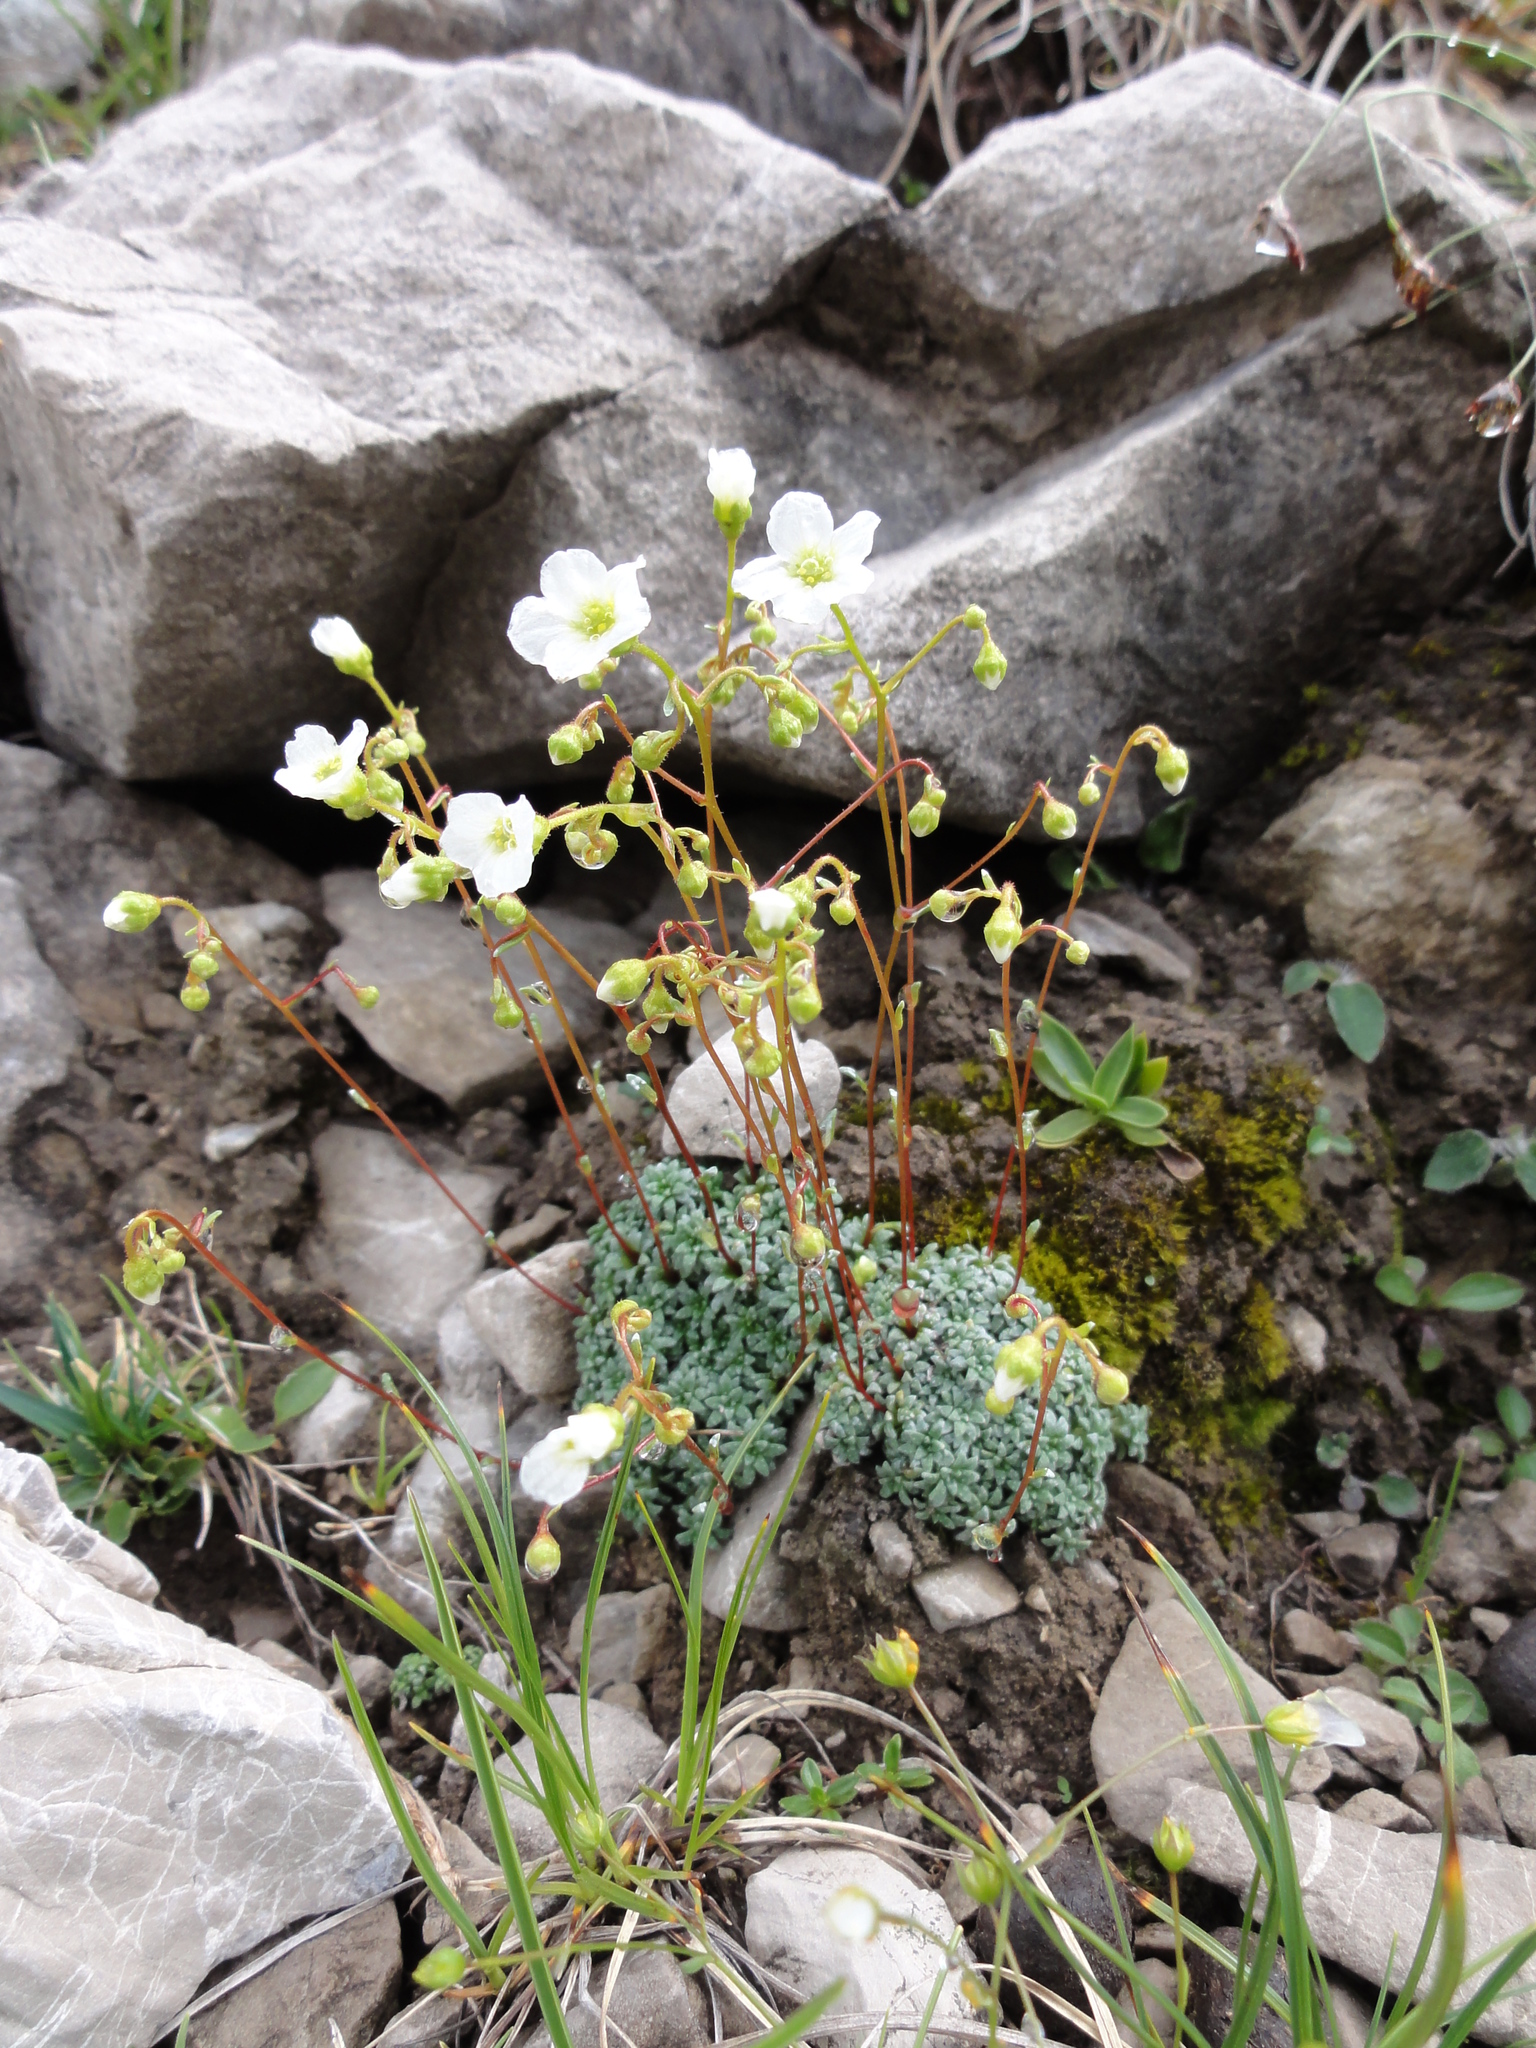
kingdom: Plantae
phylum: Tracheophyta
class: Magnoliopsida
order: Saxifragales
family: Saxifragaceae
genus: Saxifraga
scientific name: Saxifraga caesia
